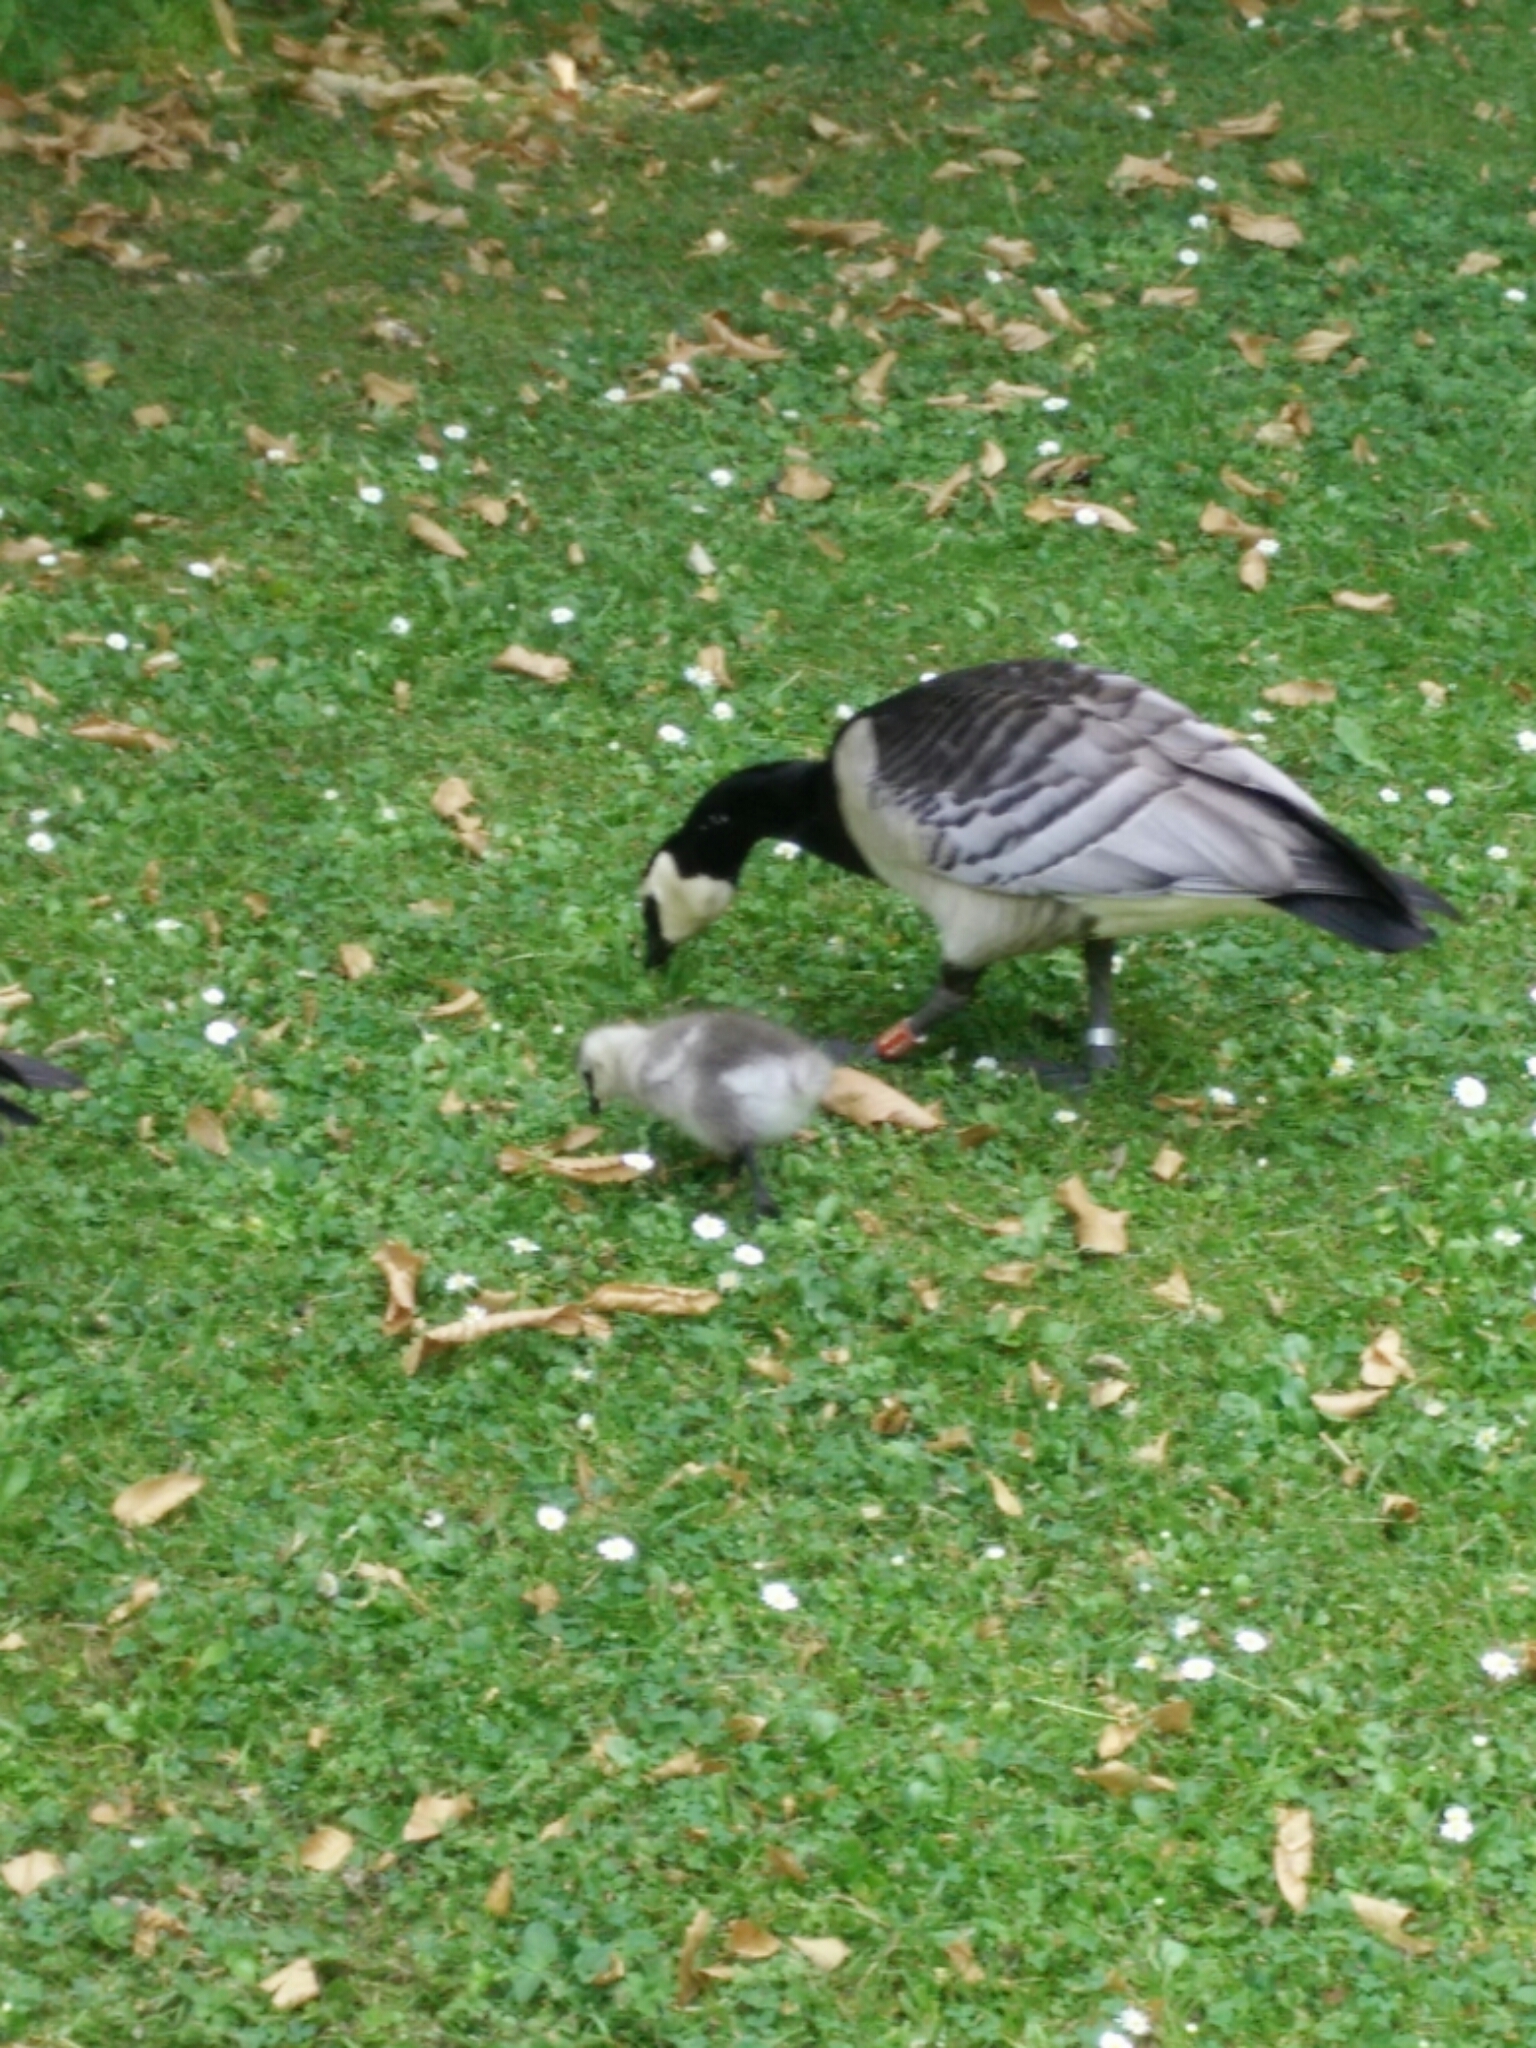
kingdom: Animalia
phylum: Chordata
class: Aves
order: Anseriformes
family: Anatidae
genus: Branta
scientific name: Branta leucopsis
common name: Barnacle goose
